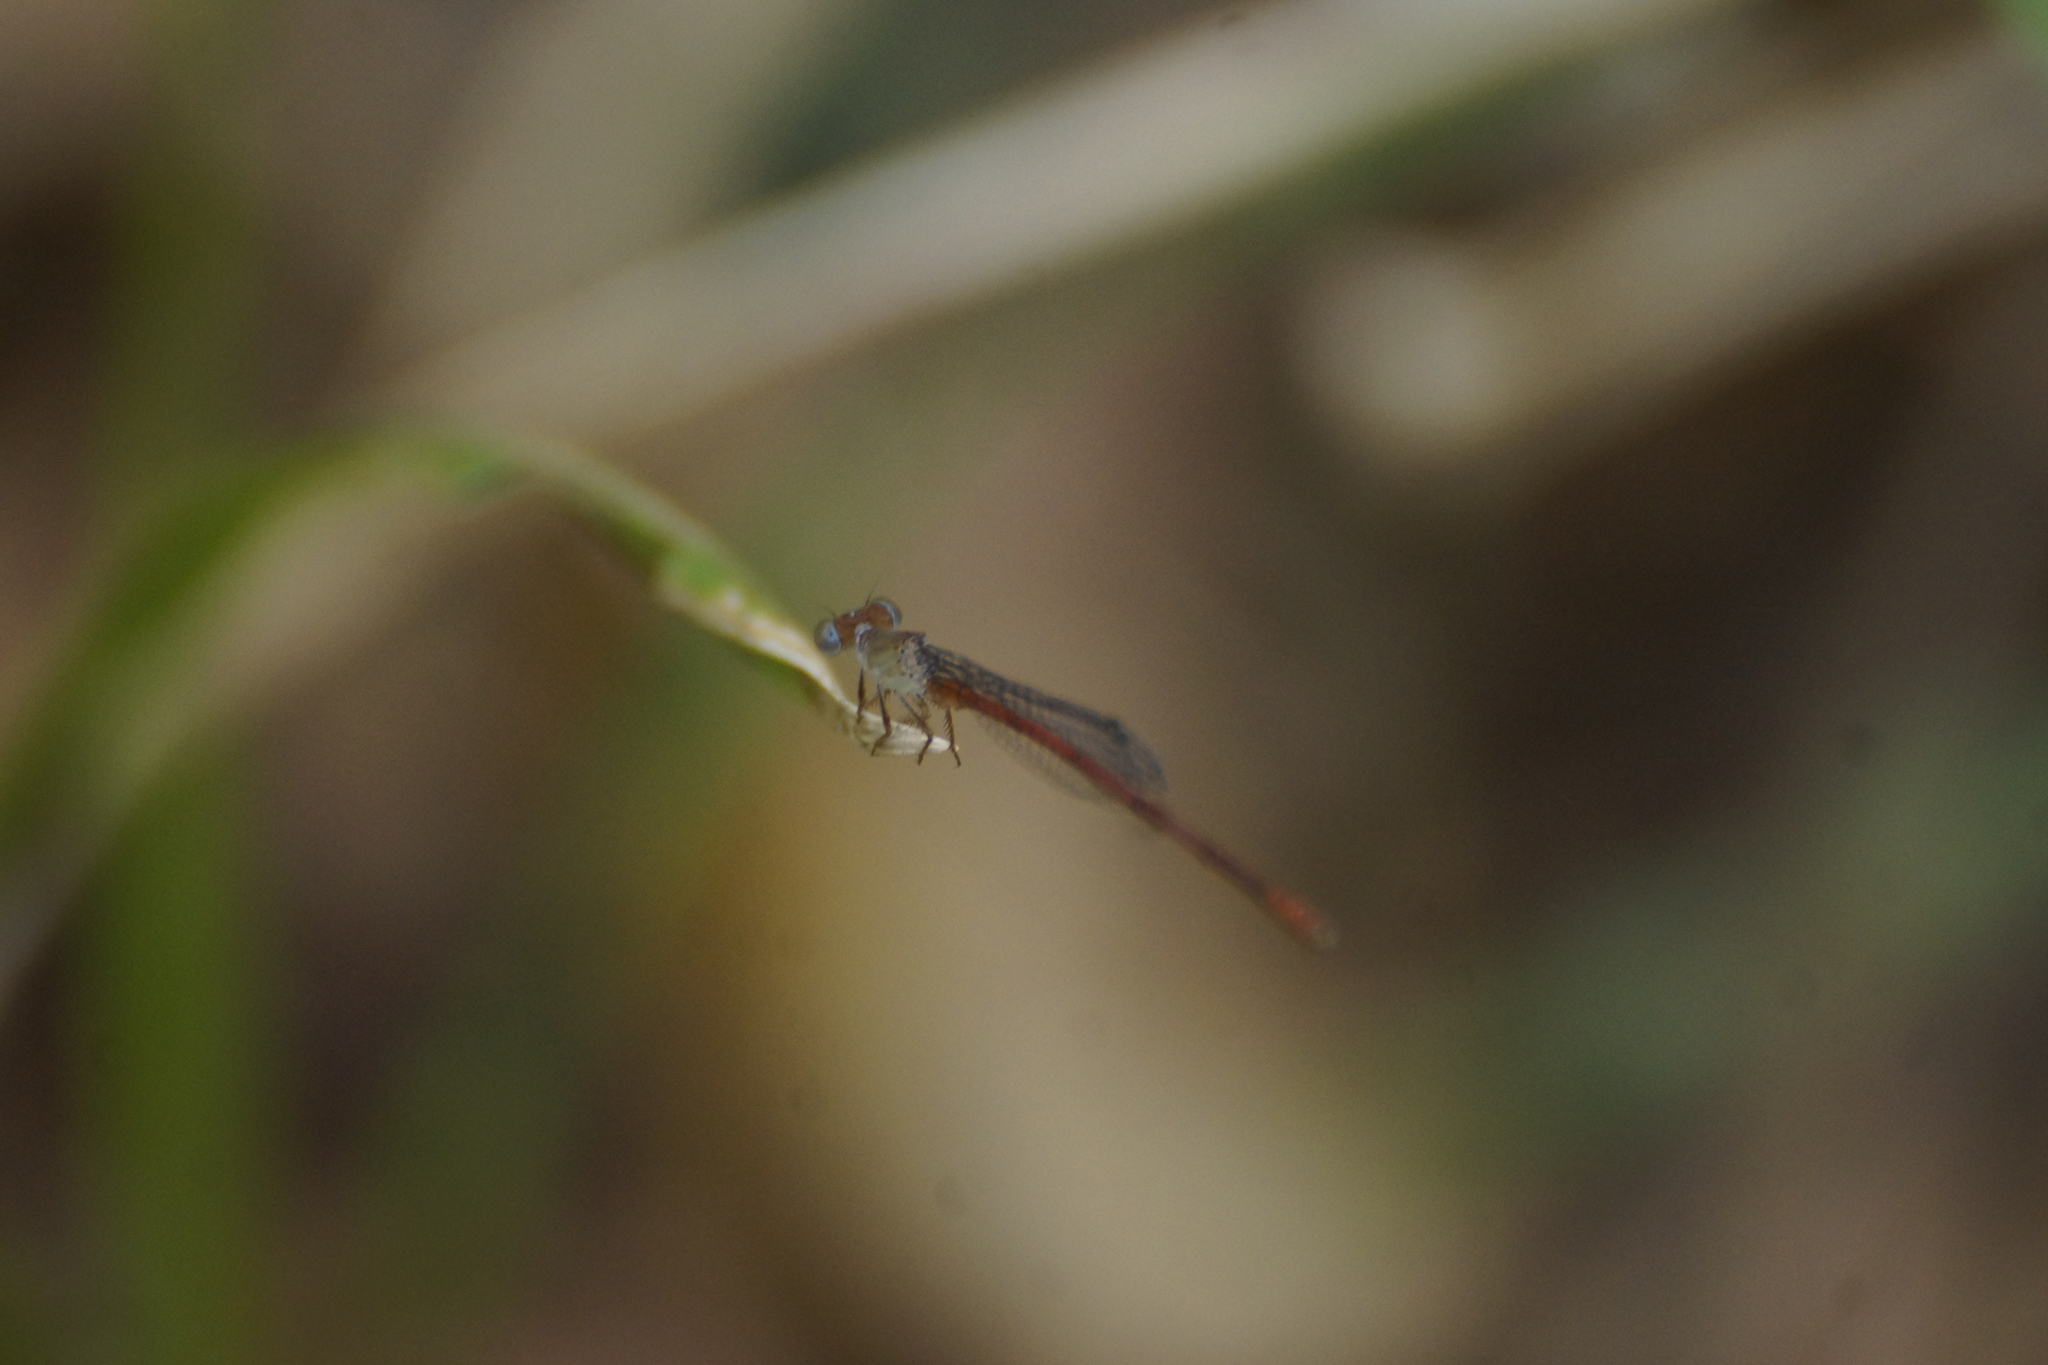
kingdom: Animalia
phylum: Arthropoda
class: Insecta
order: Odonata
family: Coenagrionidae
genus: Ceriagrion
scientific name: Ceriagrion aeruginosum
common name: Redtail
